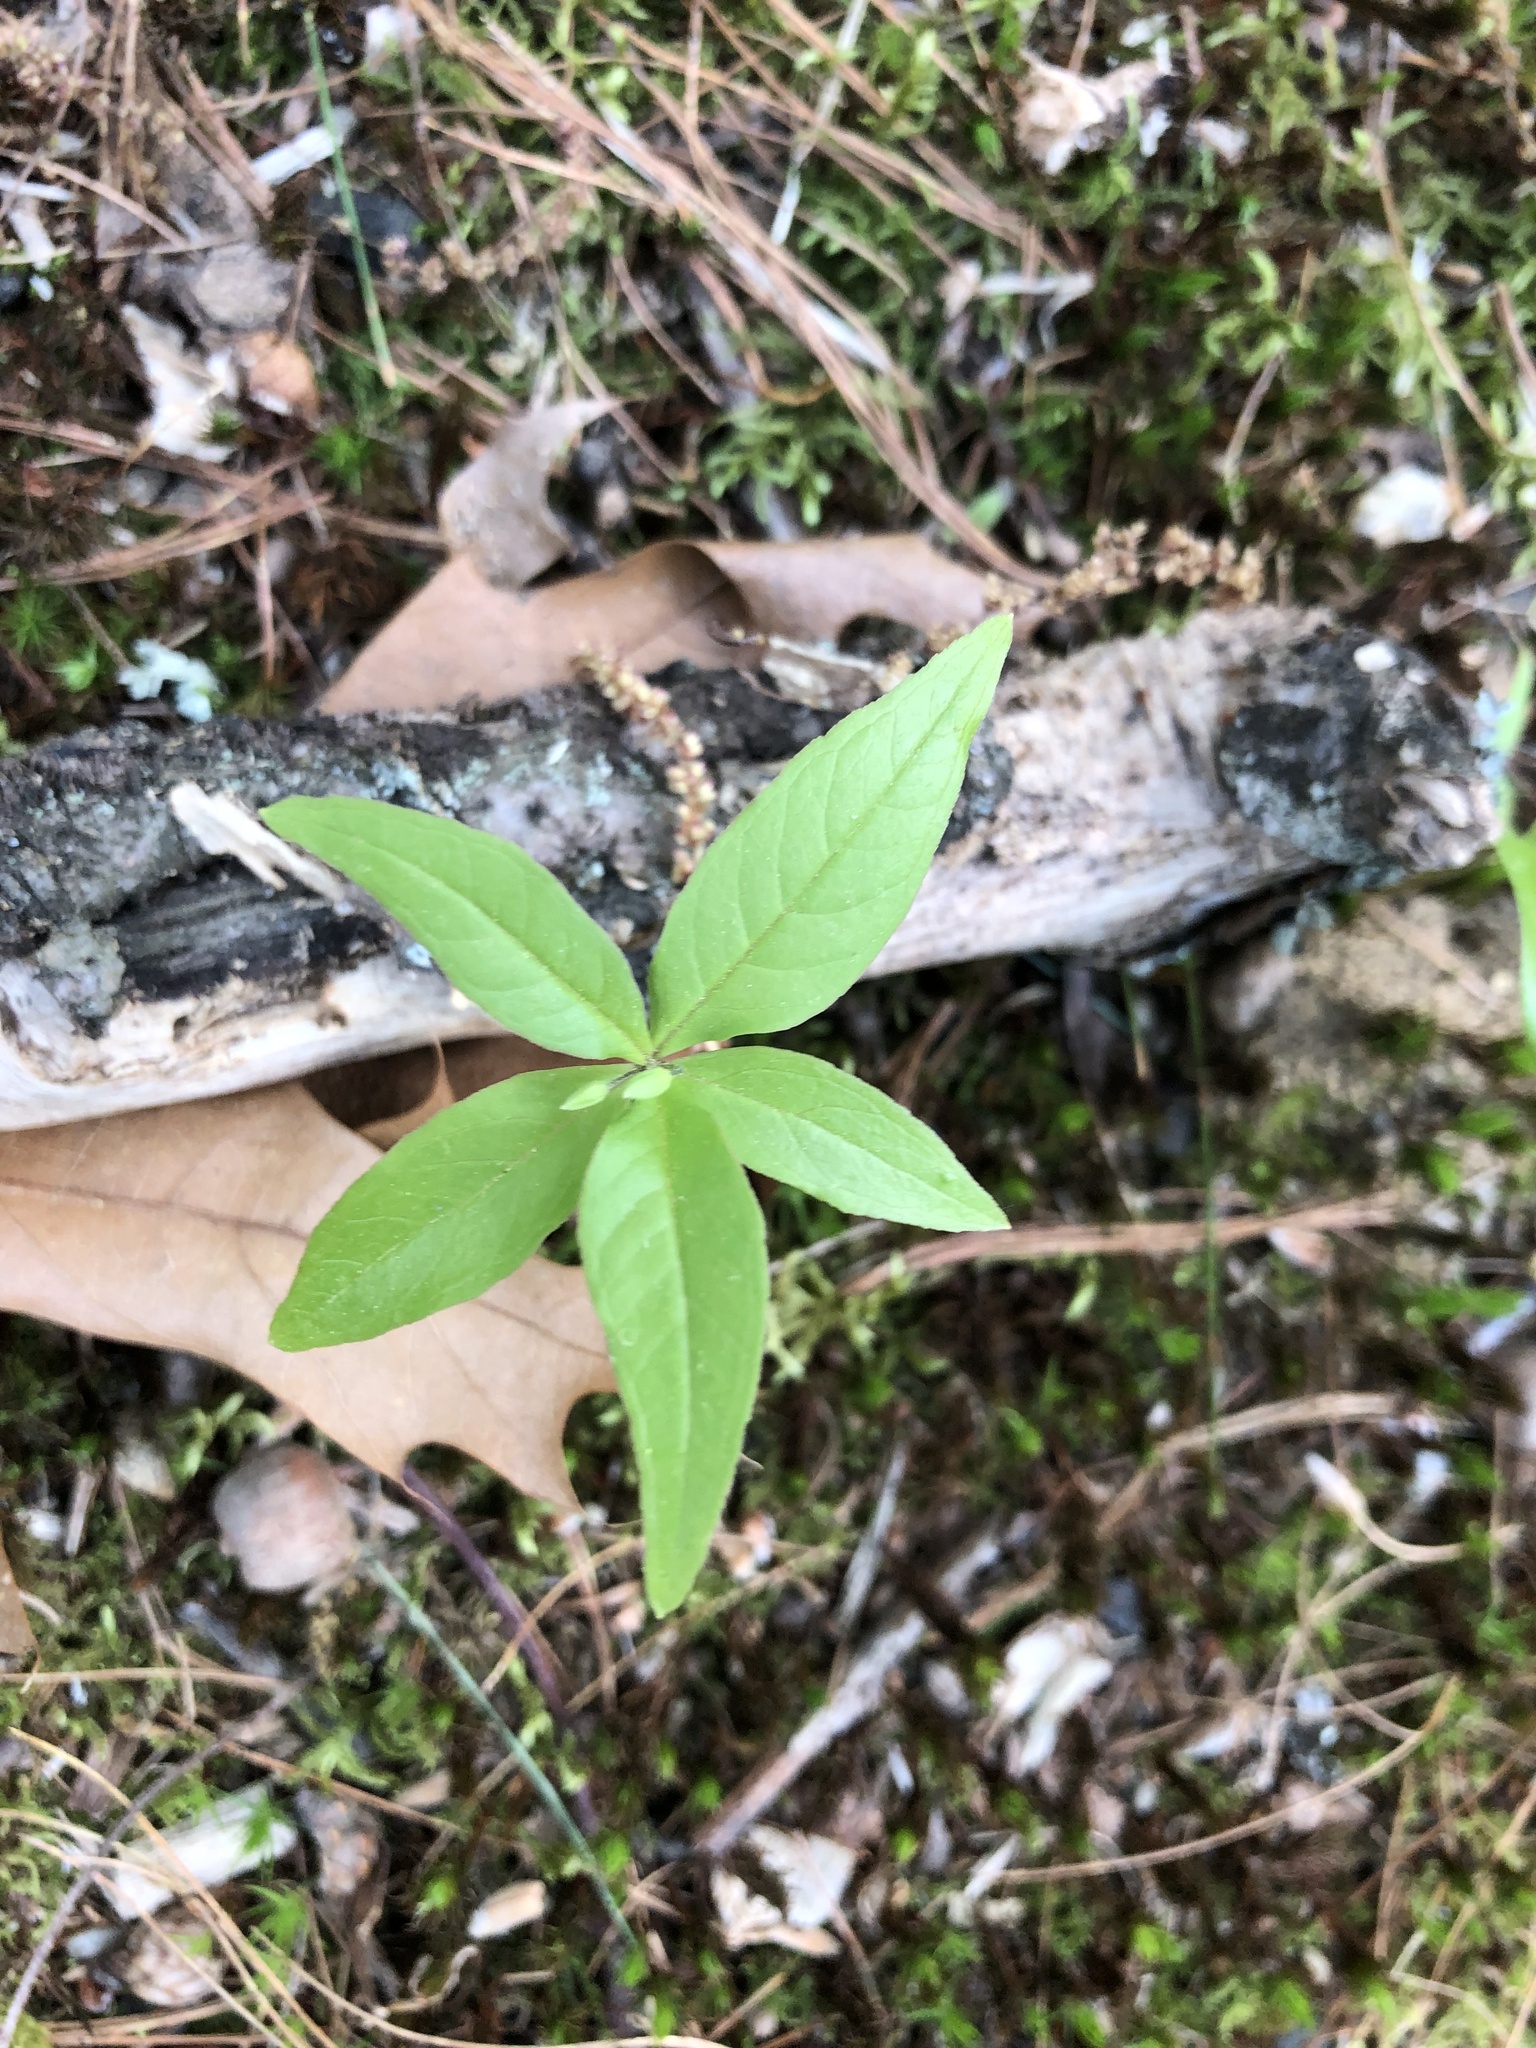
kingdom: Plantae
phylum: Tracheophyta
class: Magnoliopsida
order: Ericales
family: Primulaceae
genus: Lysimachia
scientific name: Lysimachia borealis
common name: American starflower
